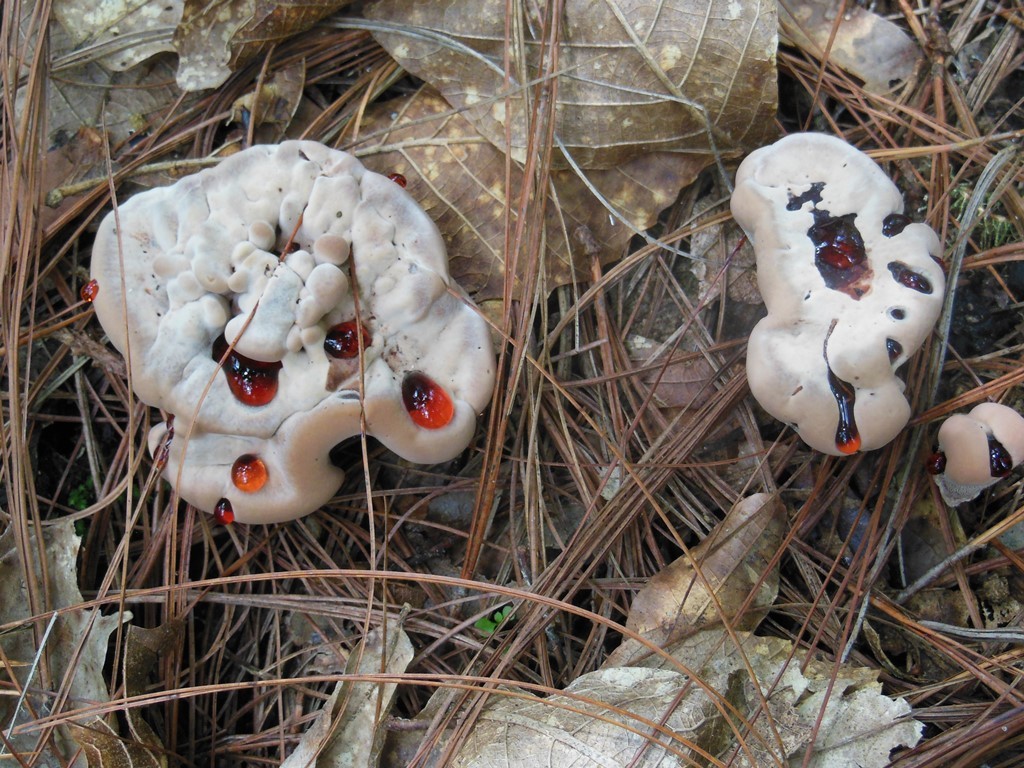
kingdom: Fungi
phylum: Basidiomycota
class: Agaricomycetes
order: Thelephorales
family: Bankeraceae
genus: Hydnellum
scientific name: Hydnellum ferrugineum
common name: Mealy tooth
